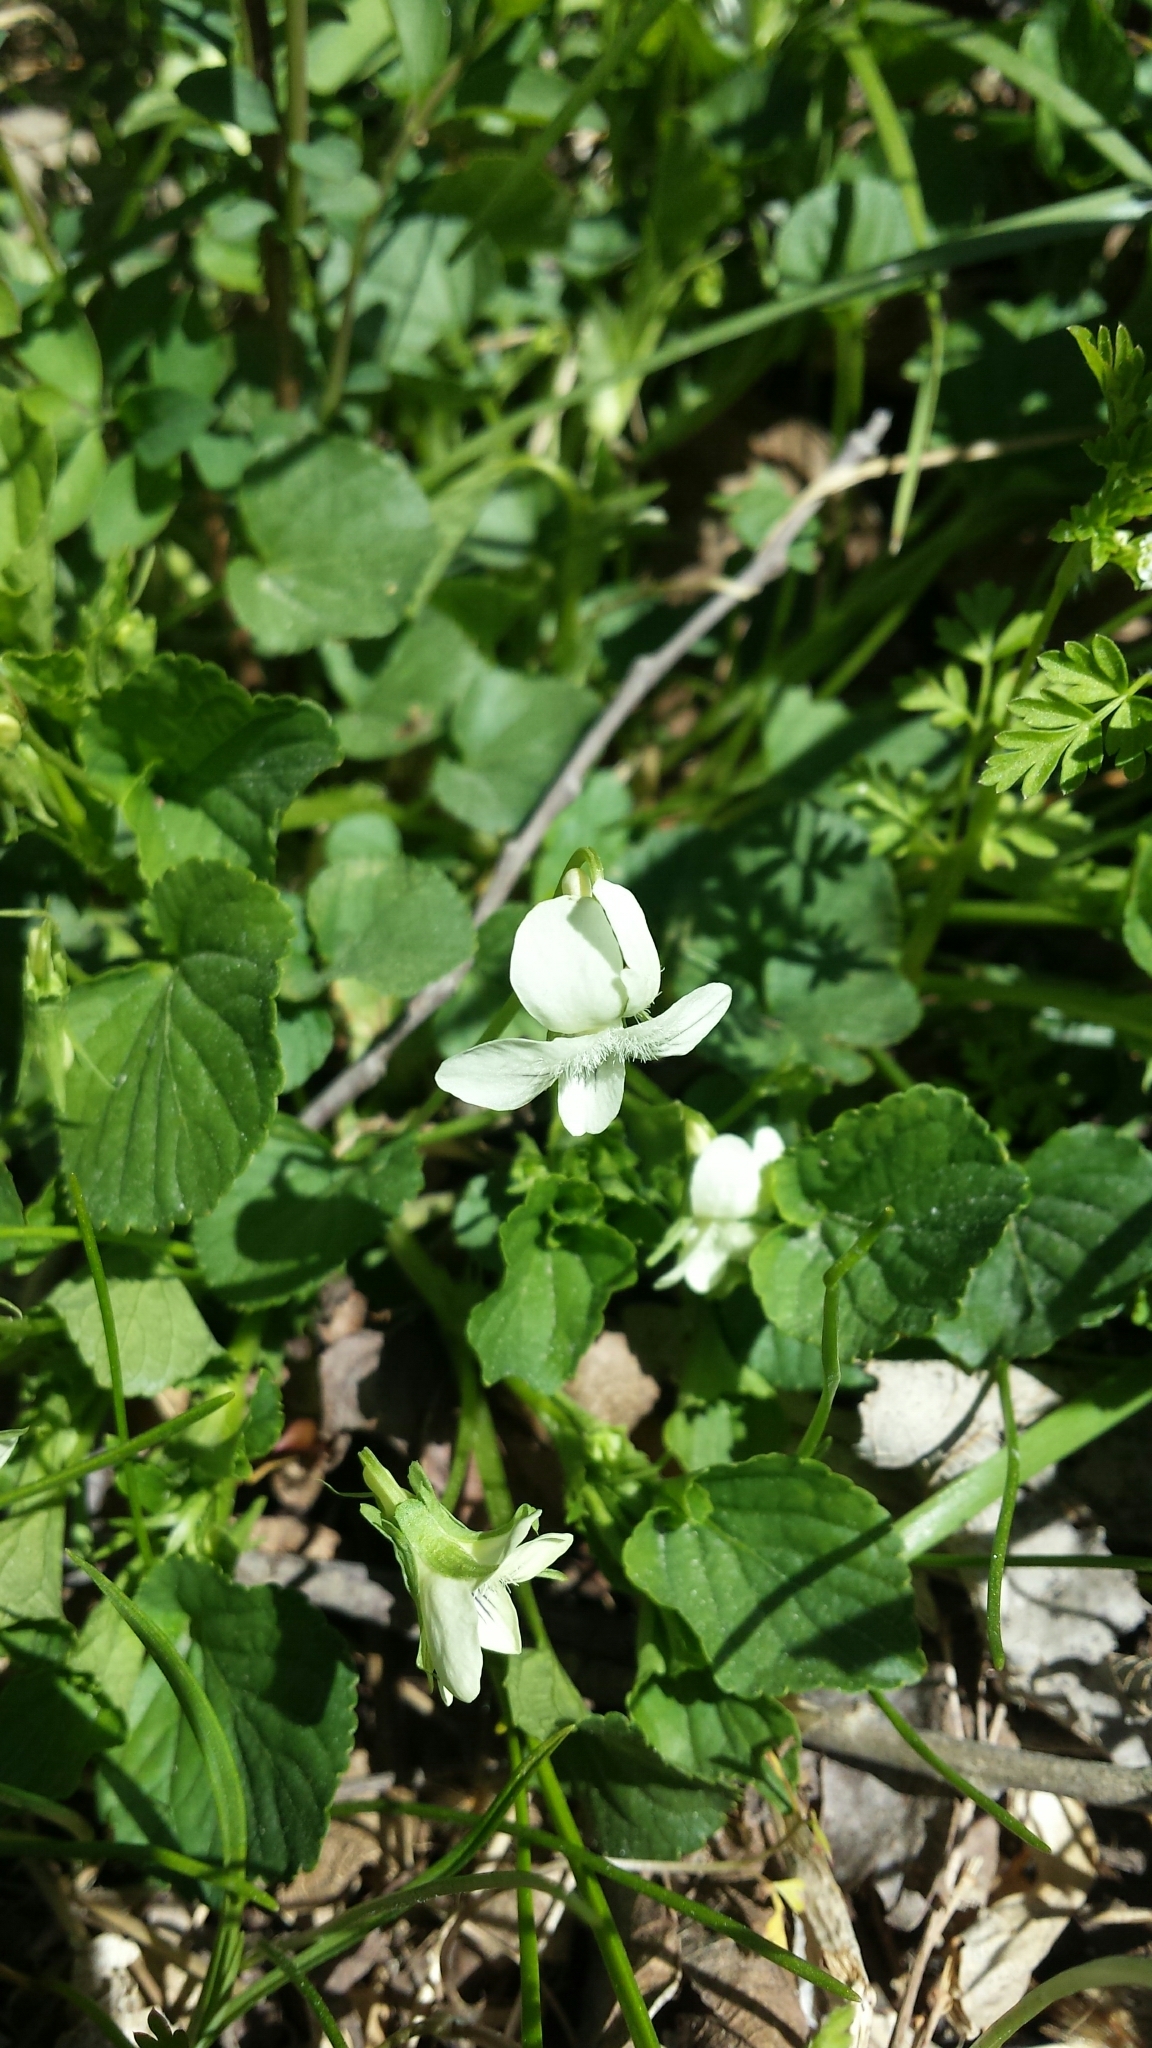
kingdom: Plantae
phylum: Tracheophyta
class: Magnoliopsida
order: Malpighiales
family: Violaceae
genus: Viola
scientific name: Viola striata
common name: Cream violet
